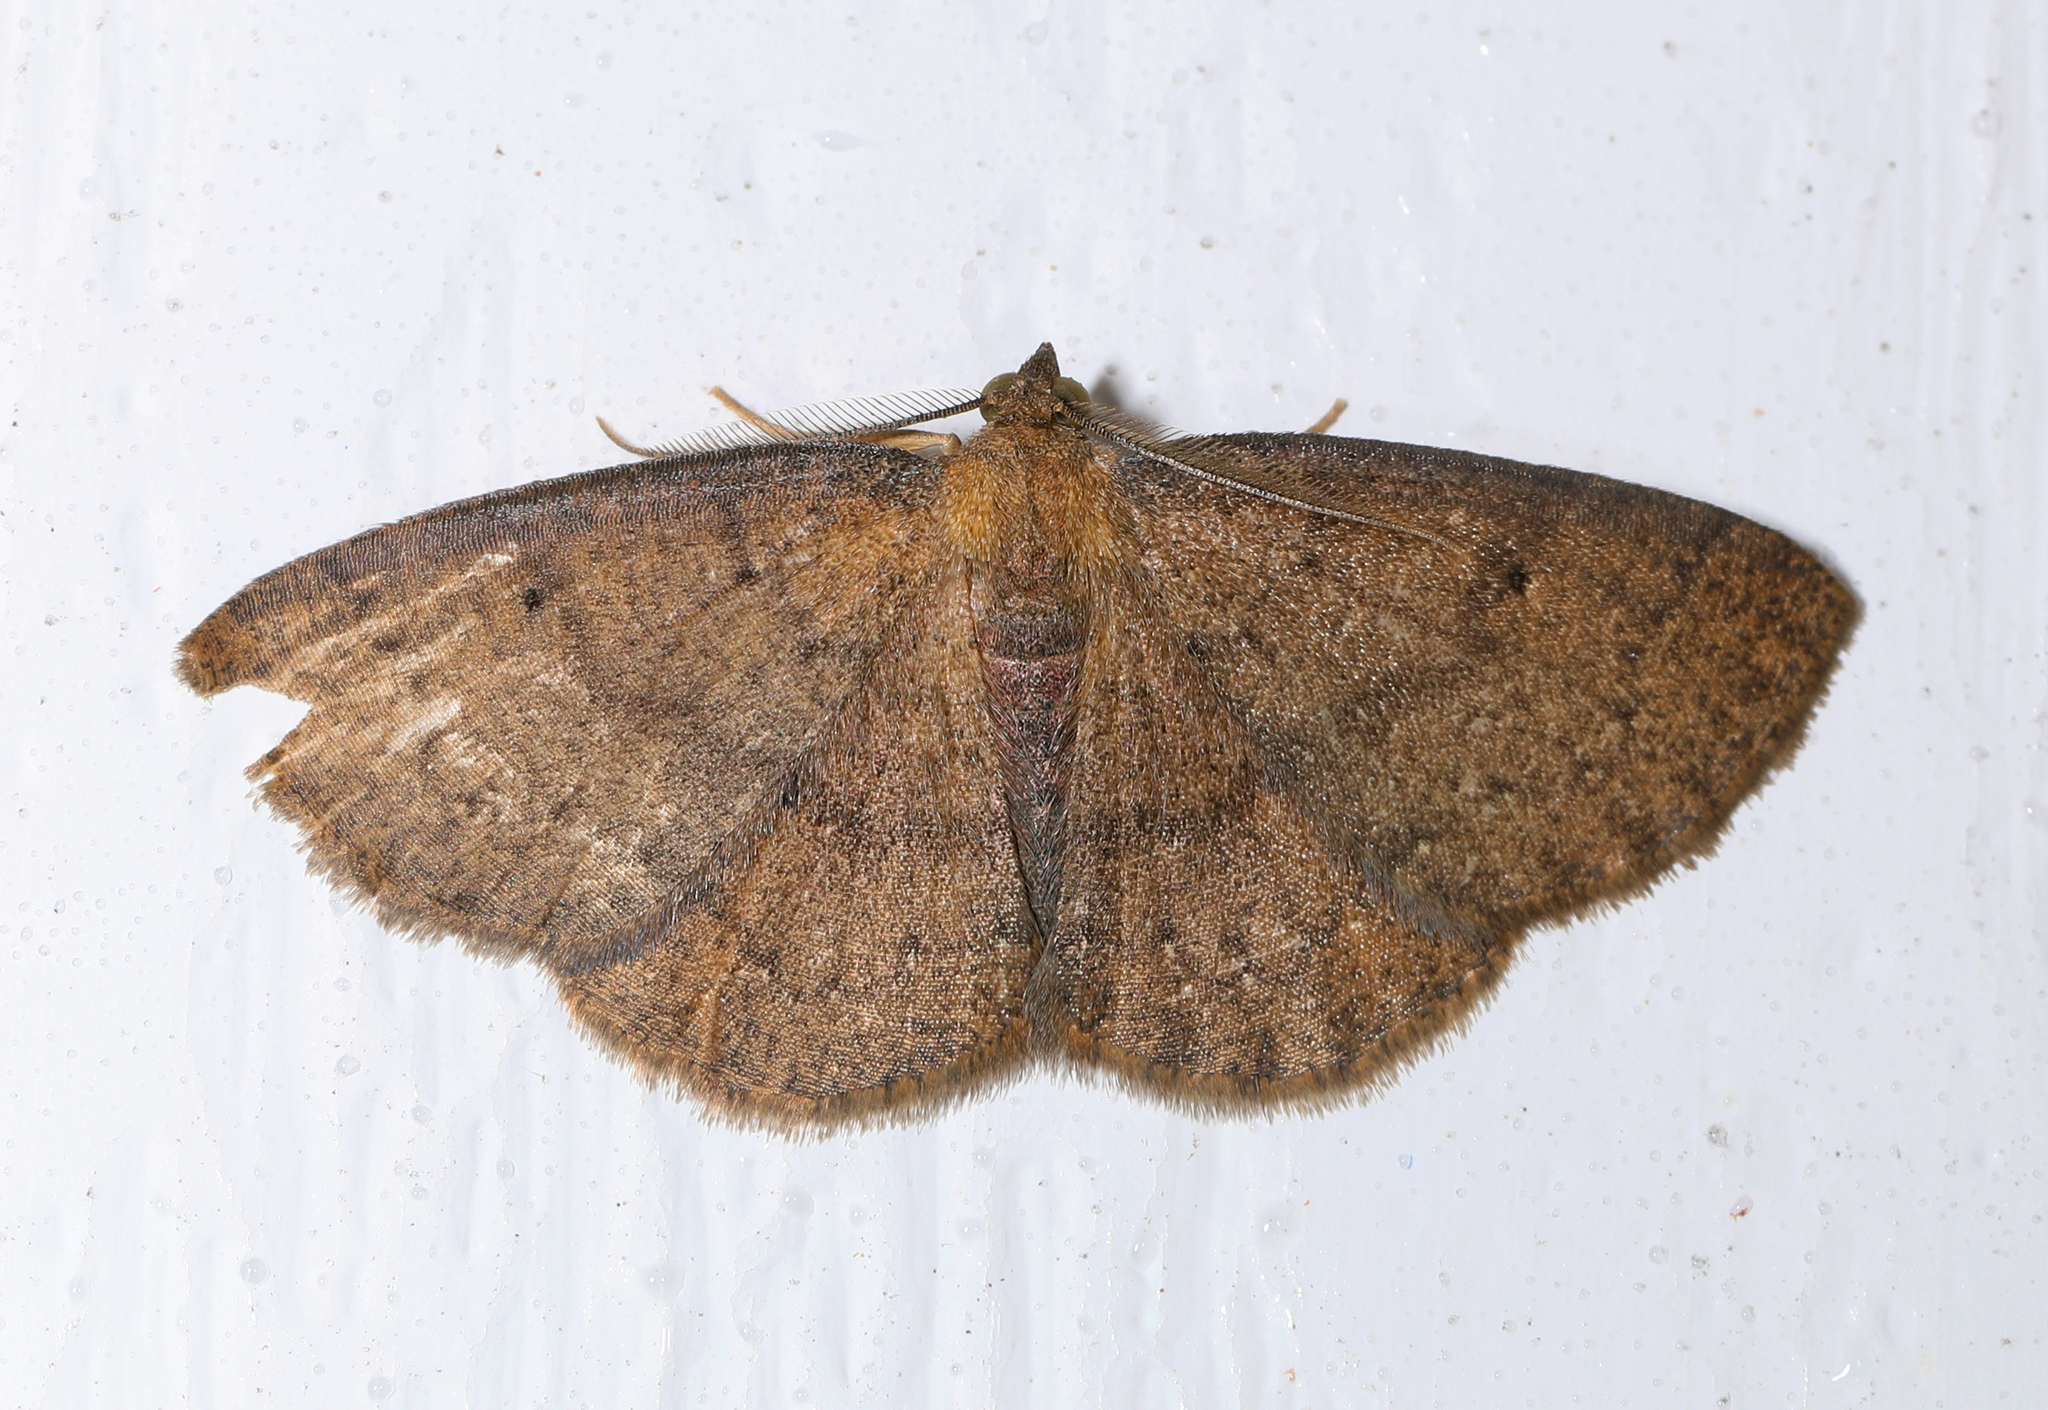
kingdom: Animalia
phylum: Arthropoda
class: Insecta
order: Lepidoptera
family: Geometridae
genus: Ilexia
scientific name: Ilexia intractata
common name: Black-dotted ruddy moth
